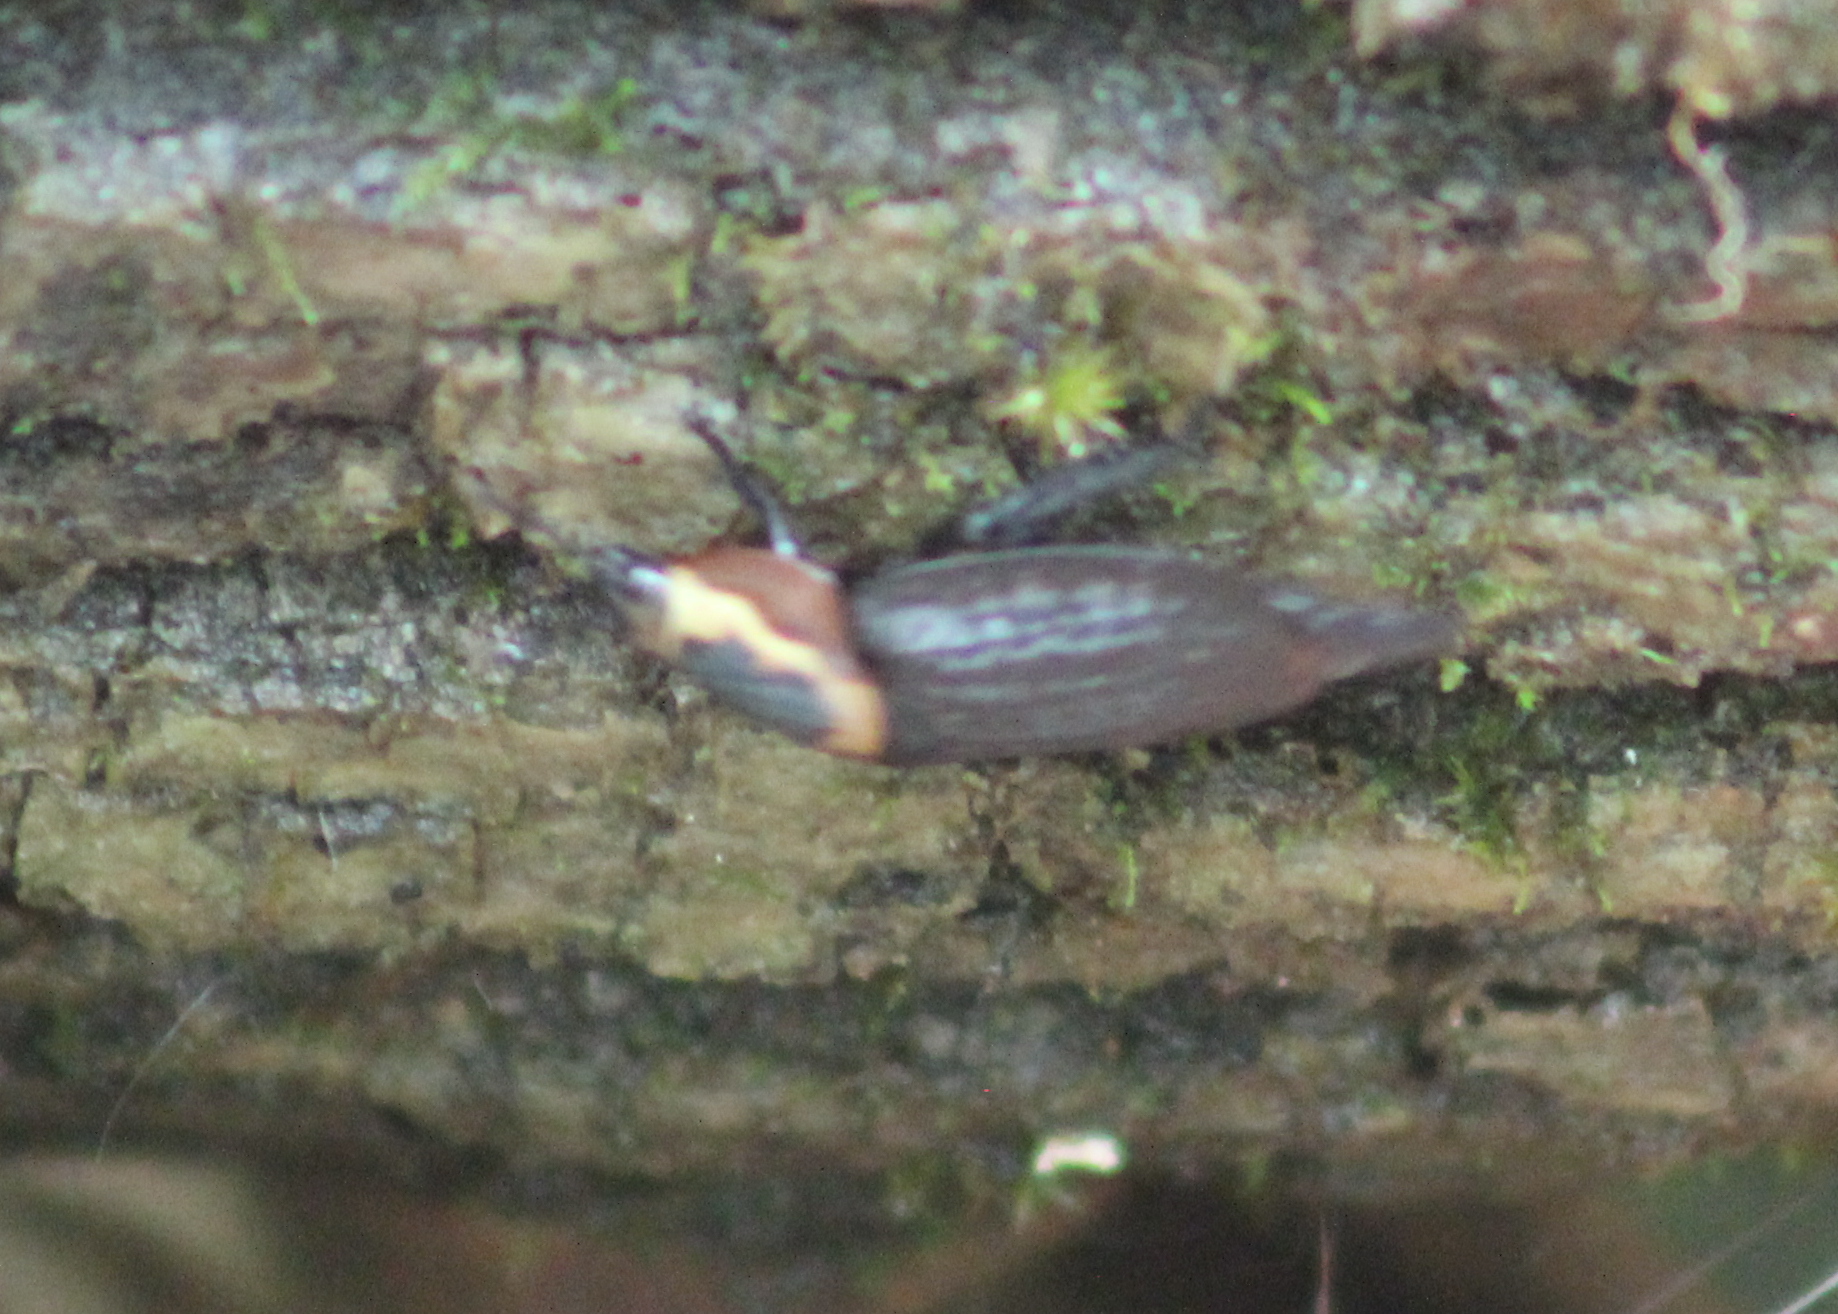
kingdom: Animalia
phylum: Arthropoda
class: Insecta
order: Coleoptera
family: Staphylinidae
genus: Necrophila
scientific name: Necrophila americana
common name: American carrion beetle
